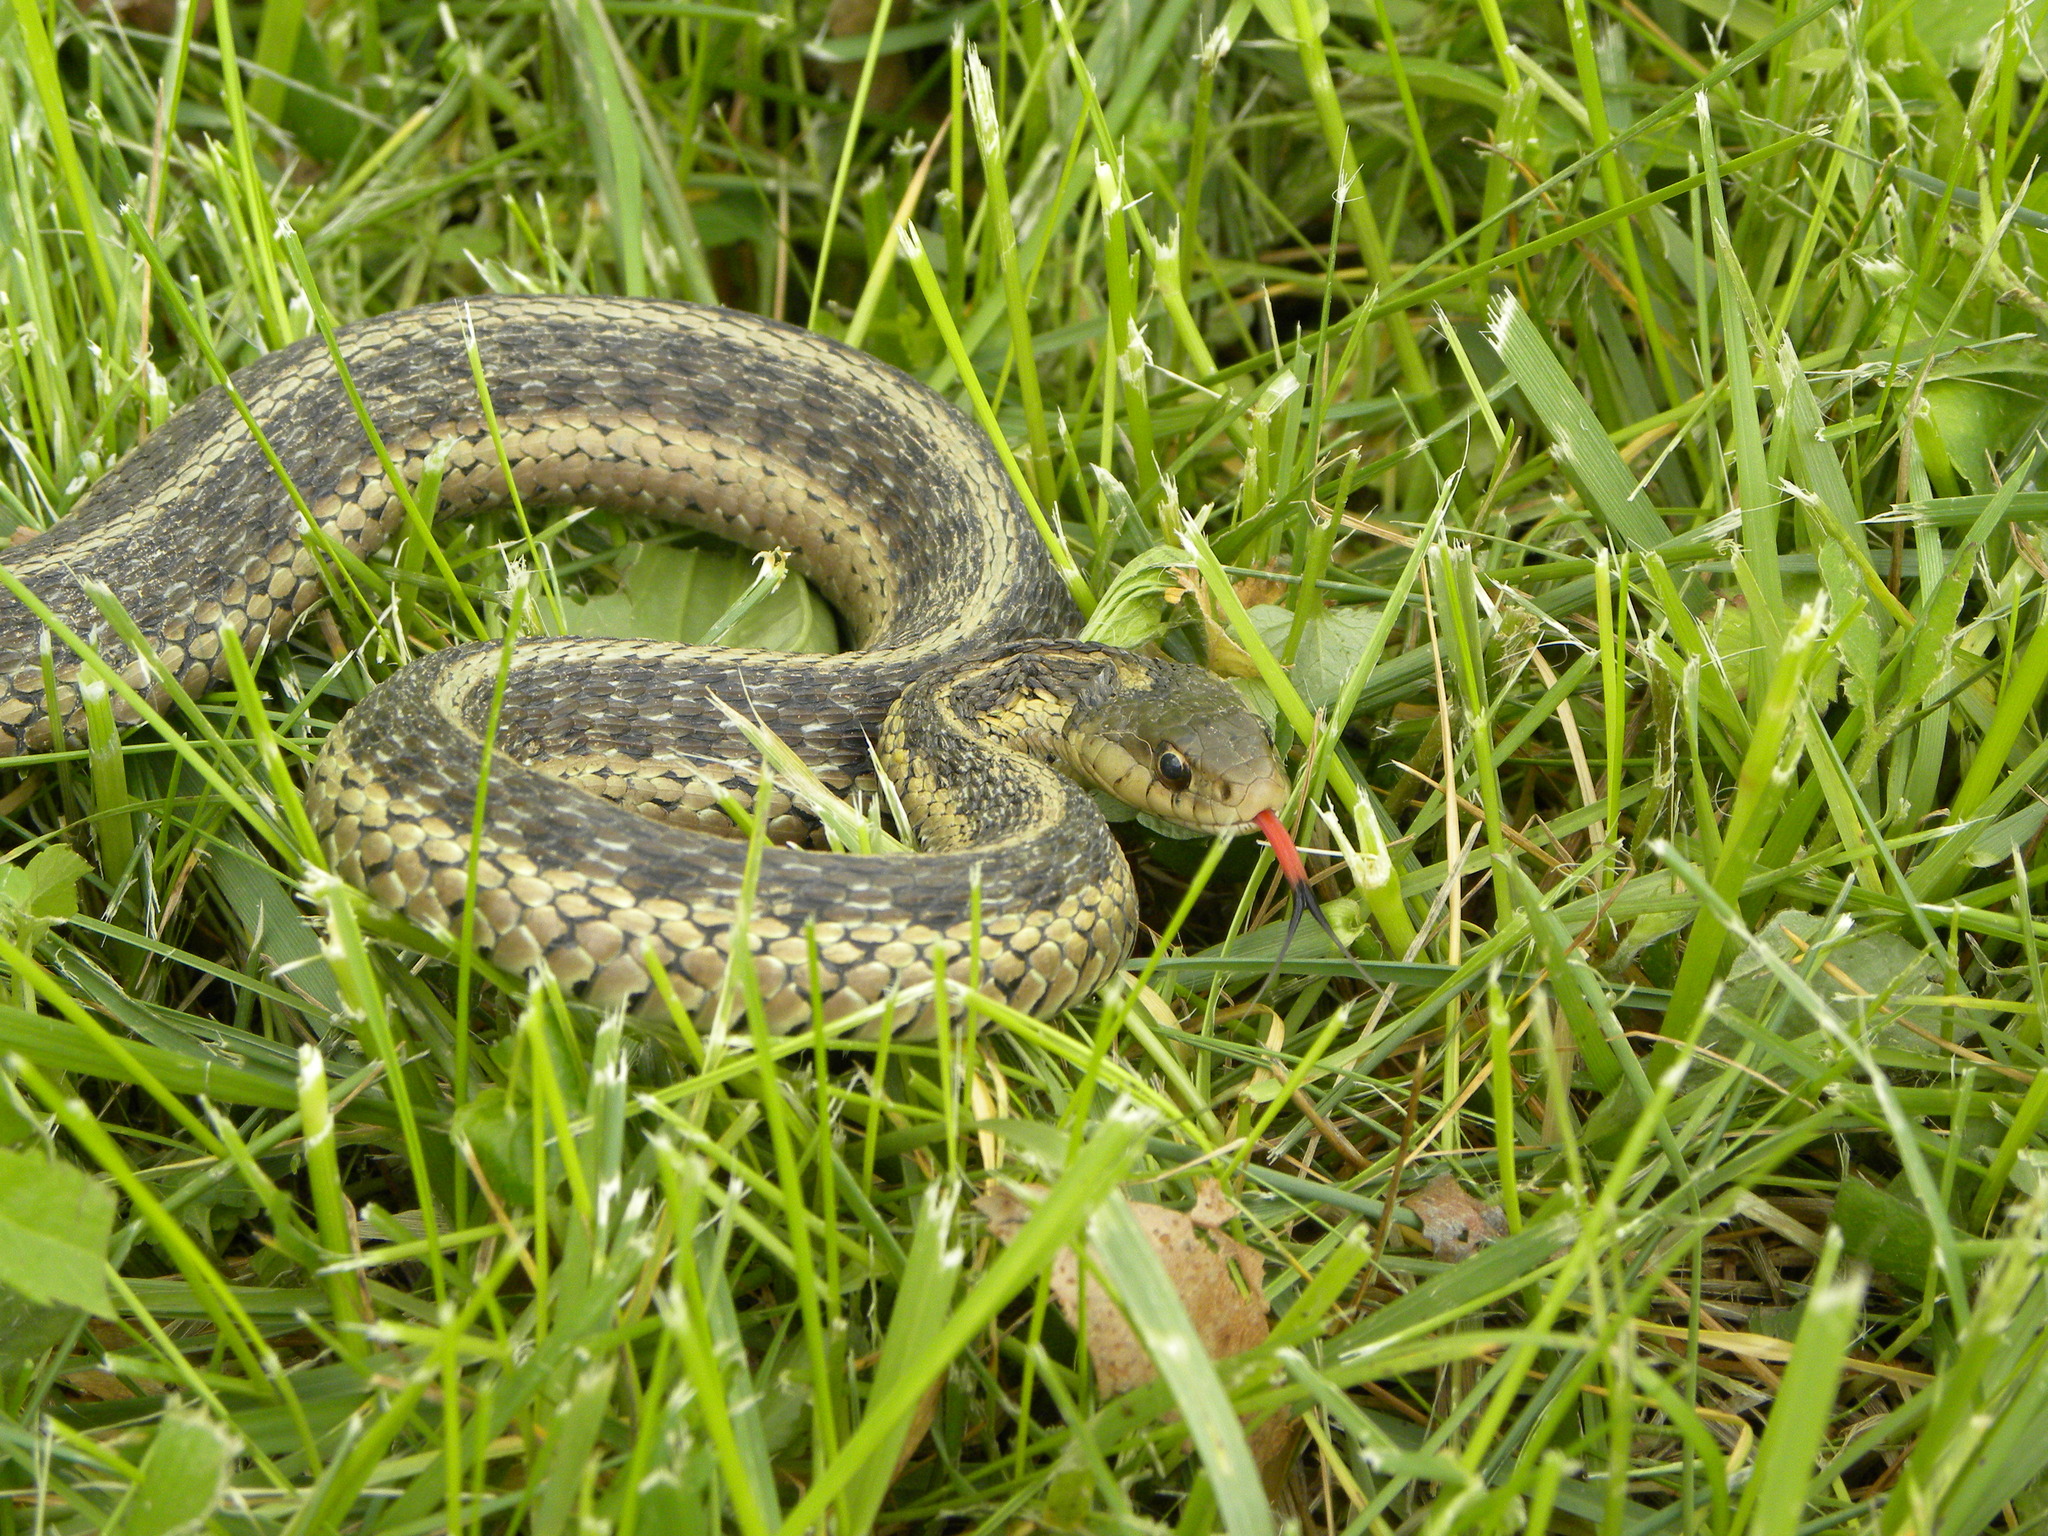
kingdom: Animalia
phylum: Chordata
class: Squamata
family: Colubridae
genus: Thamnophis
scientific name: Thamnophis sirtalis
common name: Common garter snake
